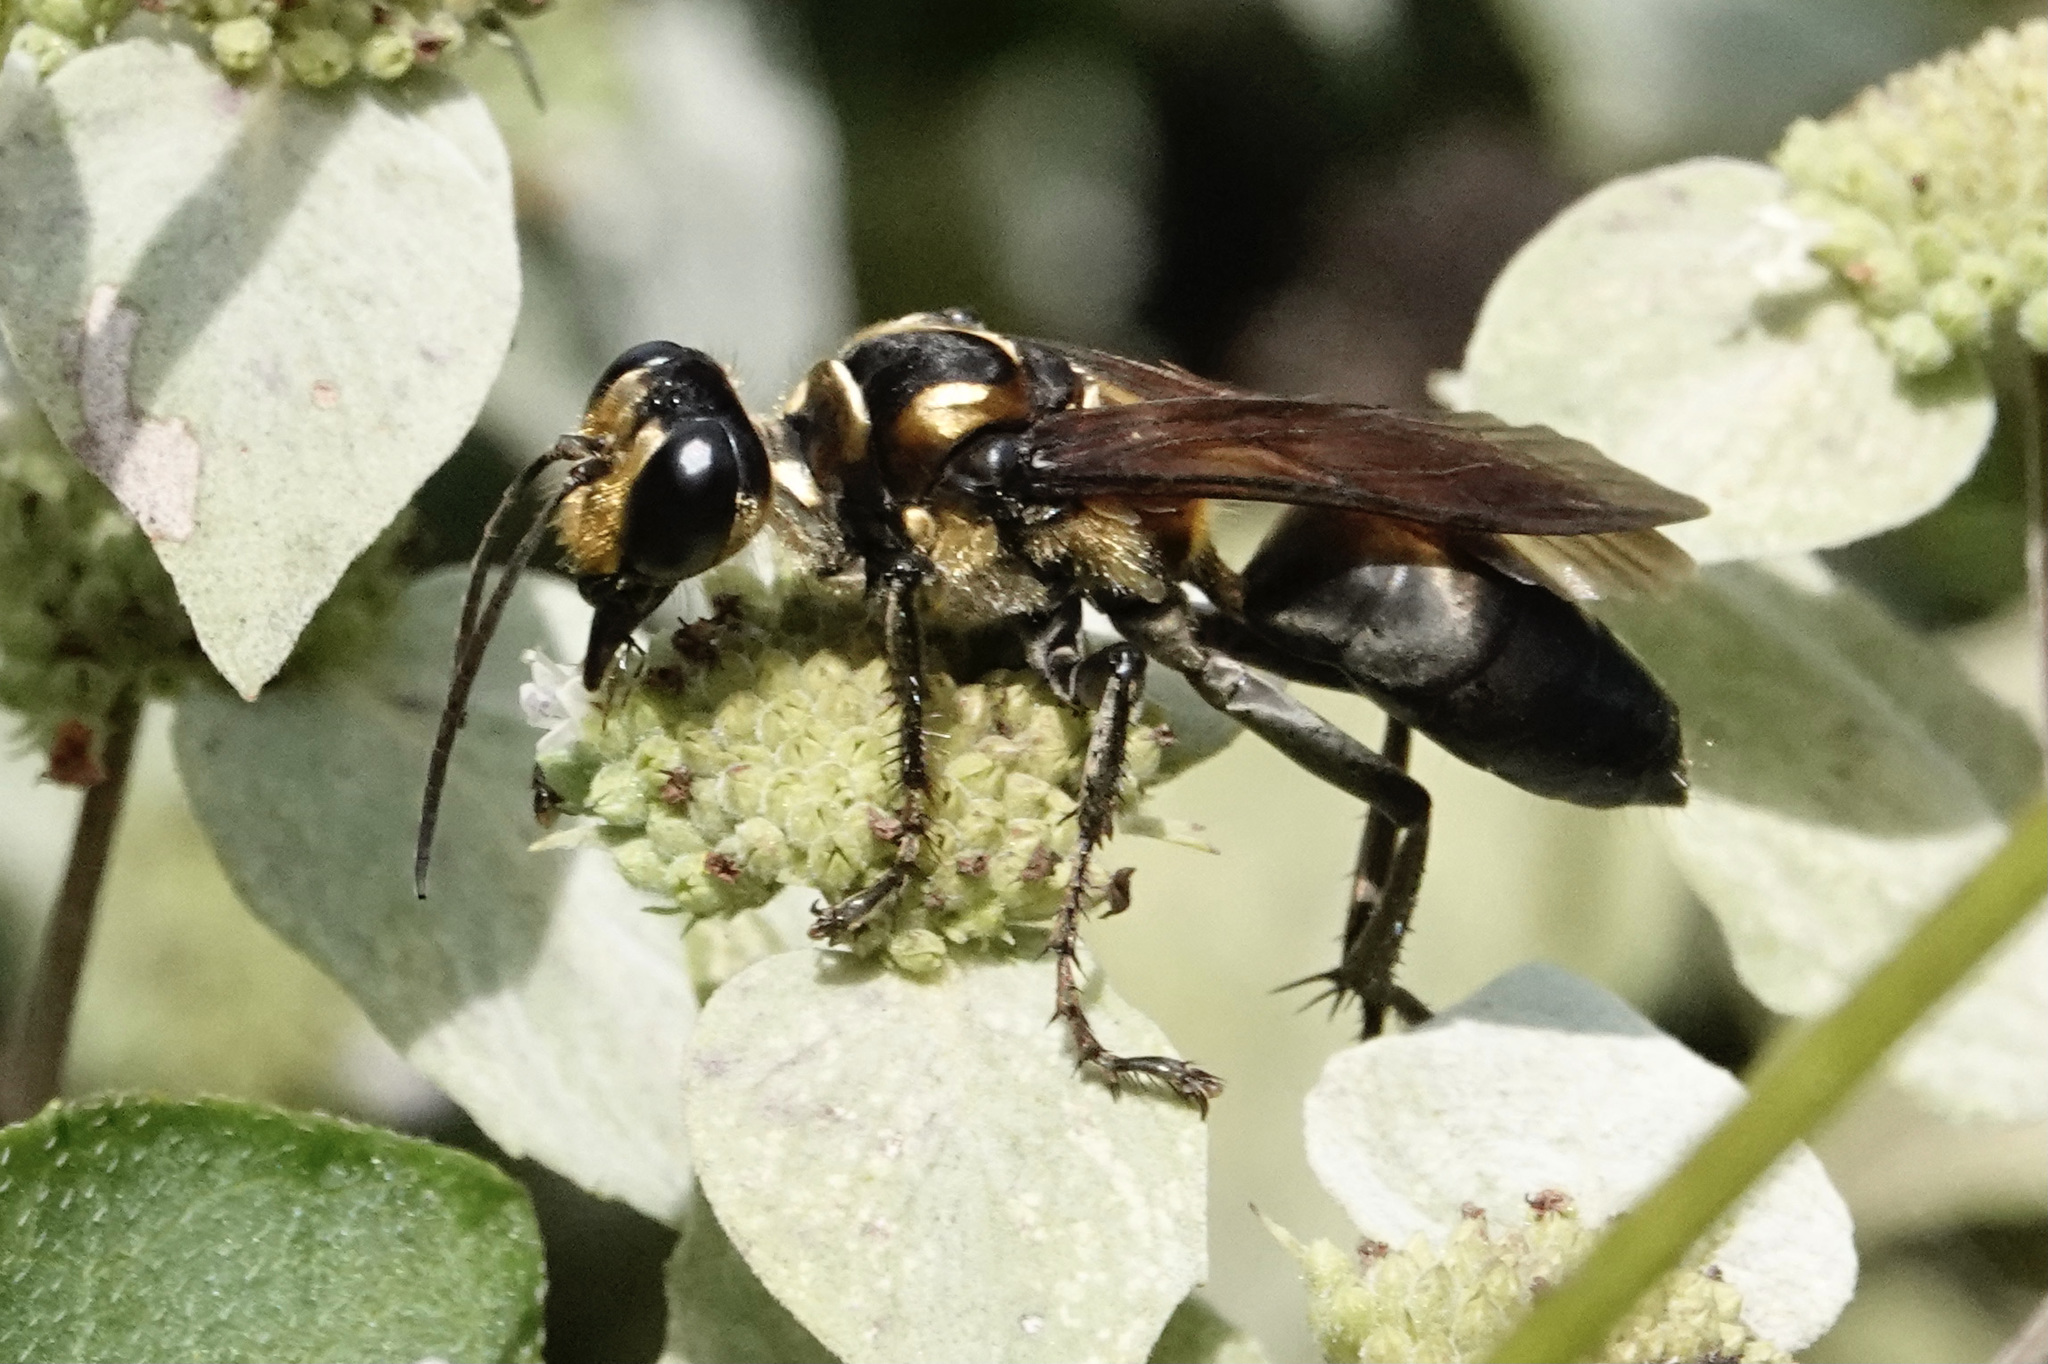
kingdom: Animalia
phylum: Arthropoda
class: Insecta
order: Hymenoptera
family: Sphecidae
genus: Sphex
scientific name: Sphex habenus
